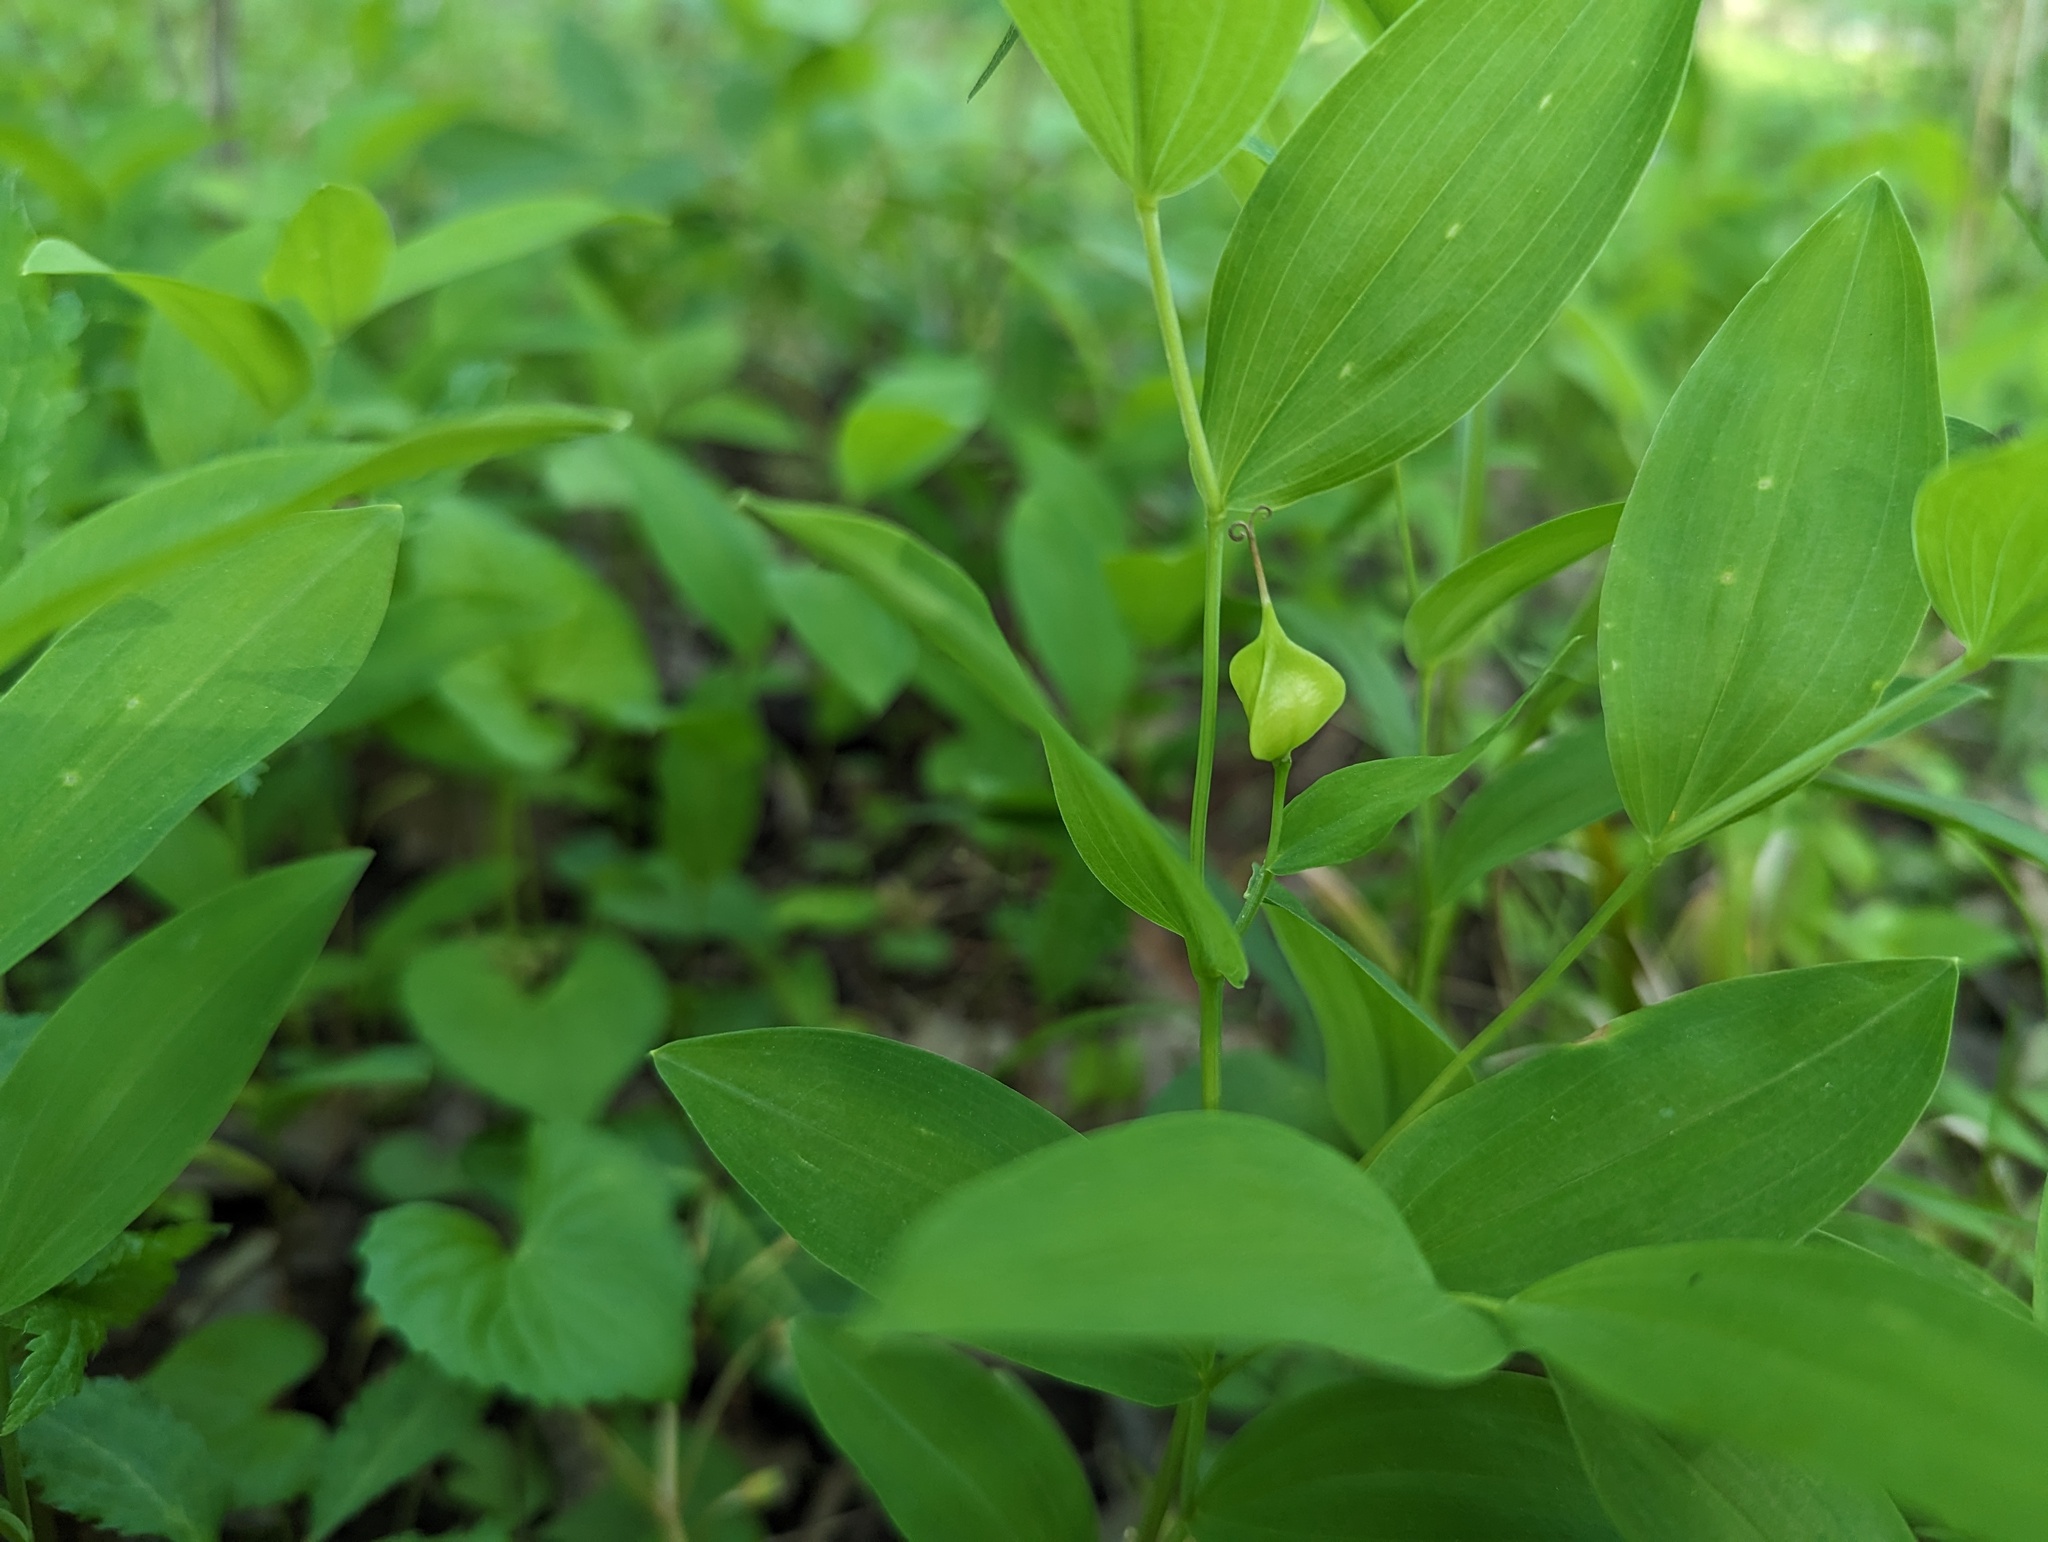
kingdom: Plantae
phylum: Tracheophyta
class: Liliopsida
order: Liliales
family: Colchicaceae
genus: Uvularia
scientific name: Uvularia floridana
